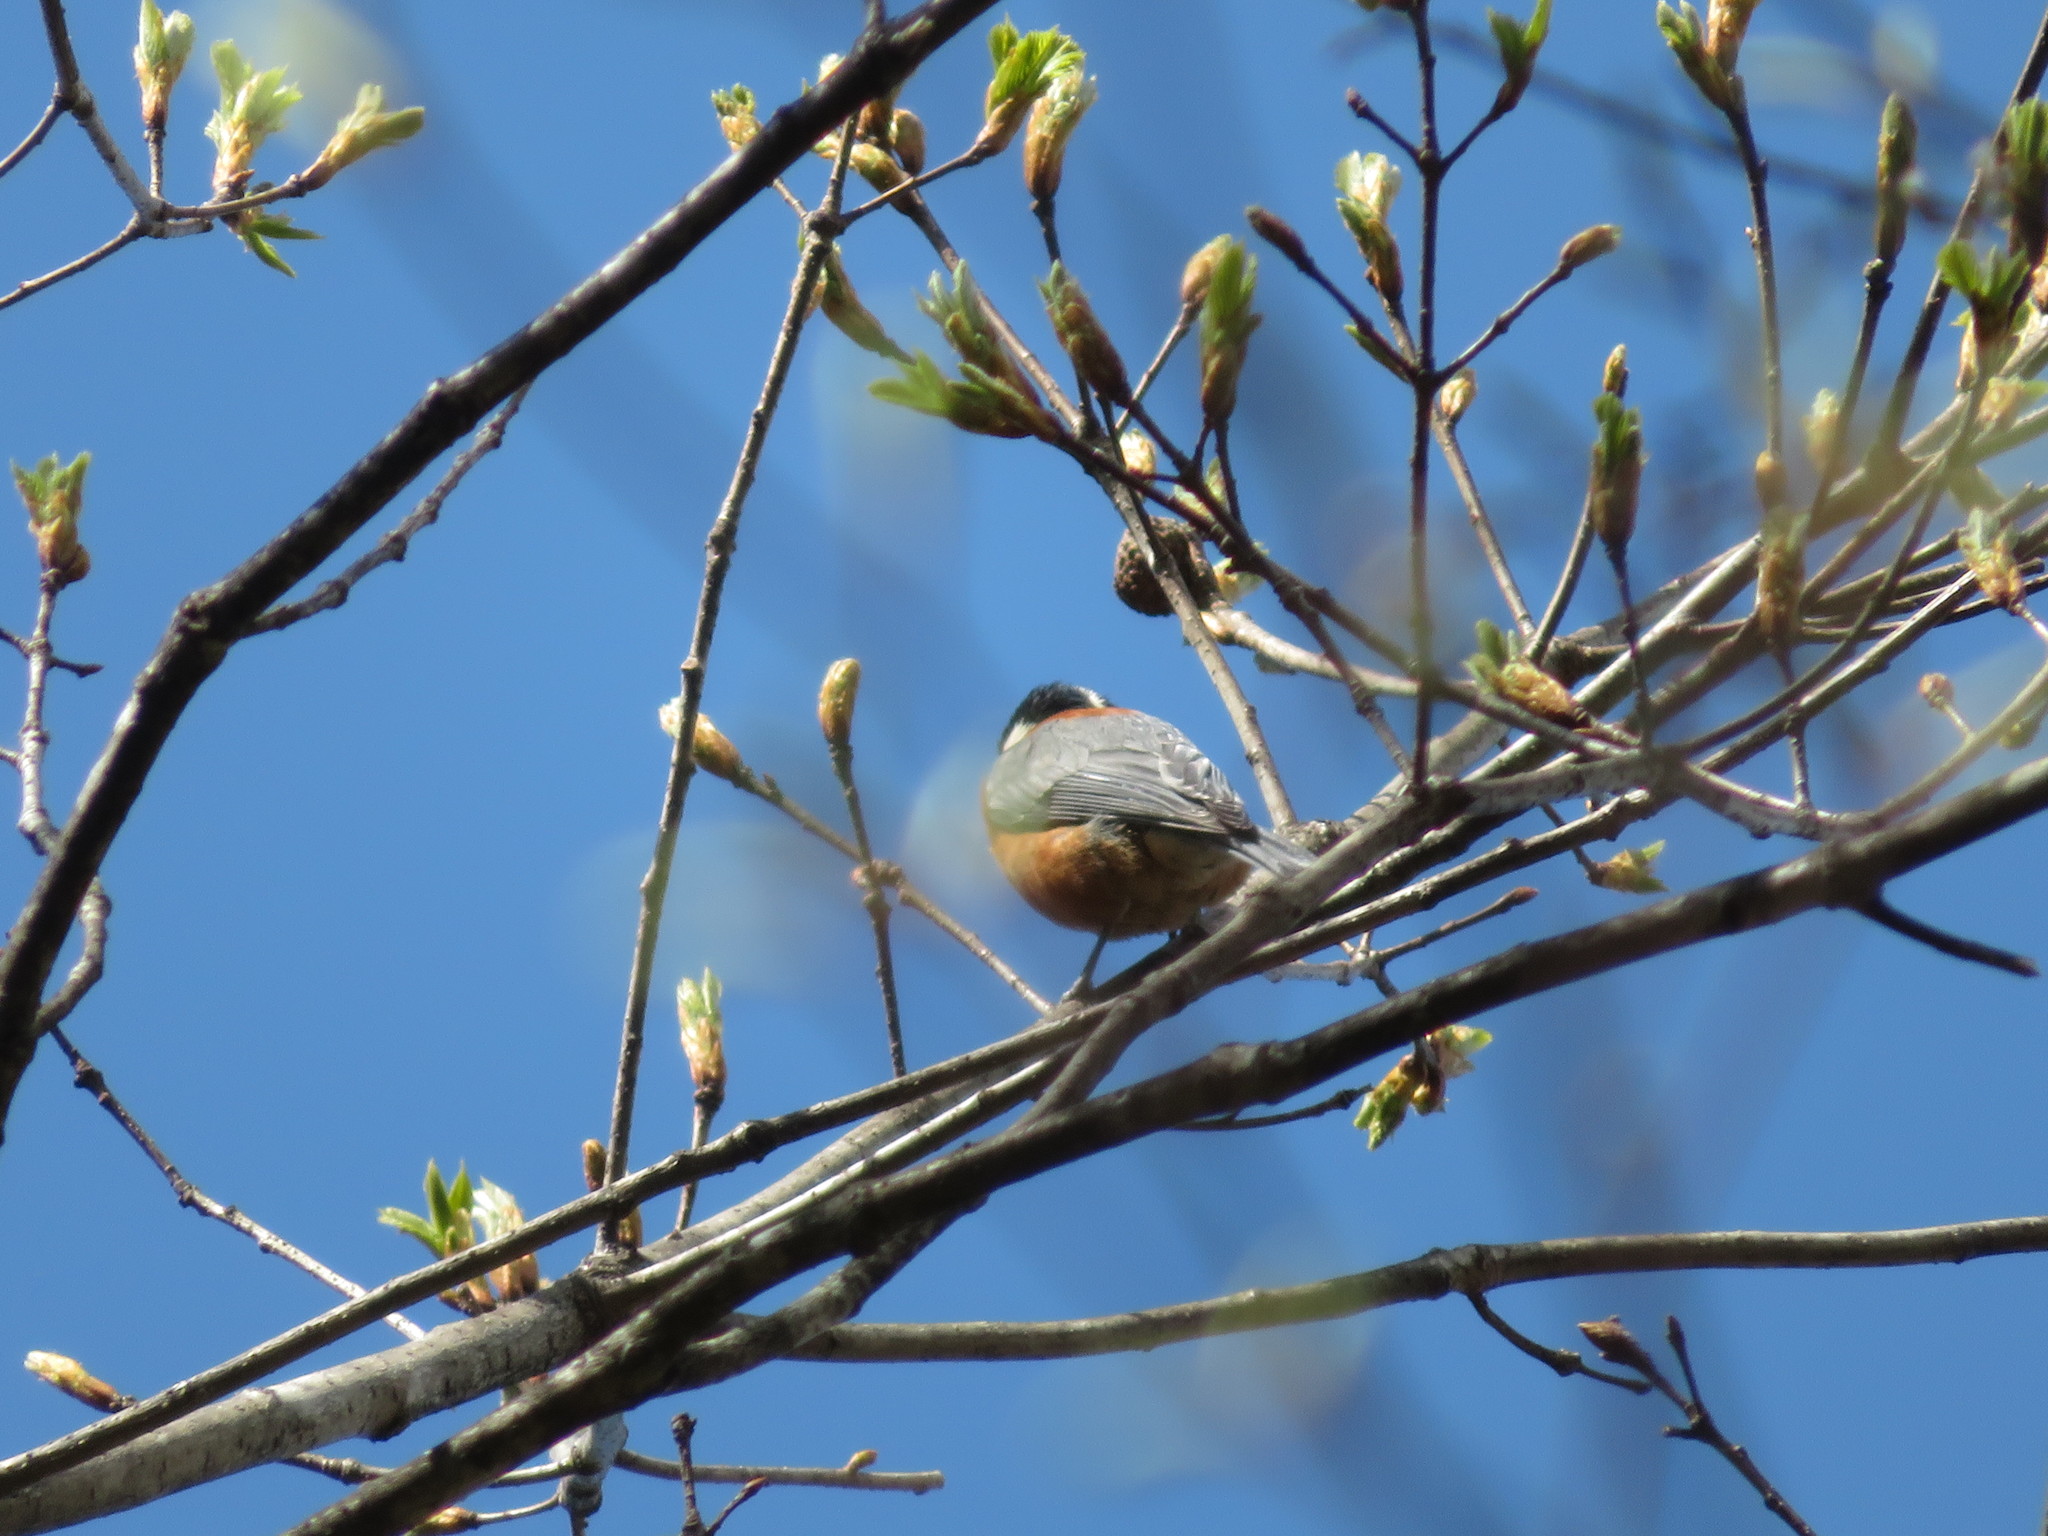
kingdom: Animalia
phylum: Chordata
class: Aves
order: Passeriformes
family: Paridae
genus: Poecile
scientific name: Poecile varius
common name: Varied tit
